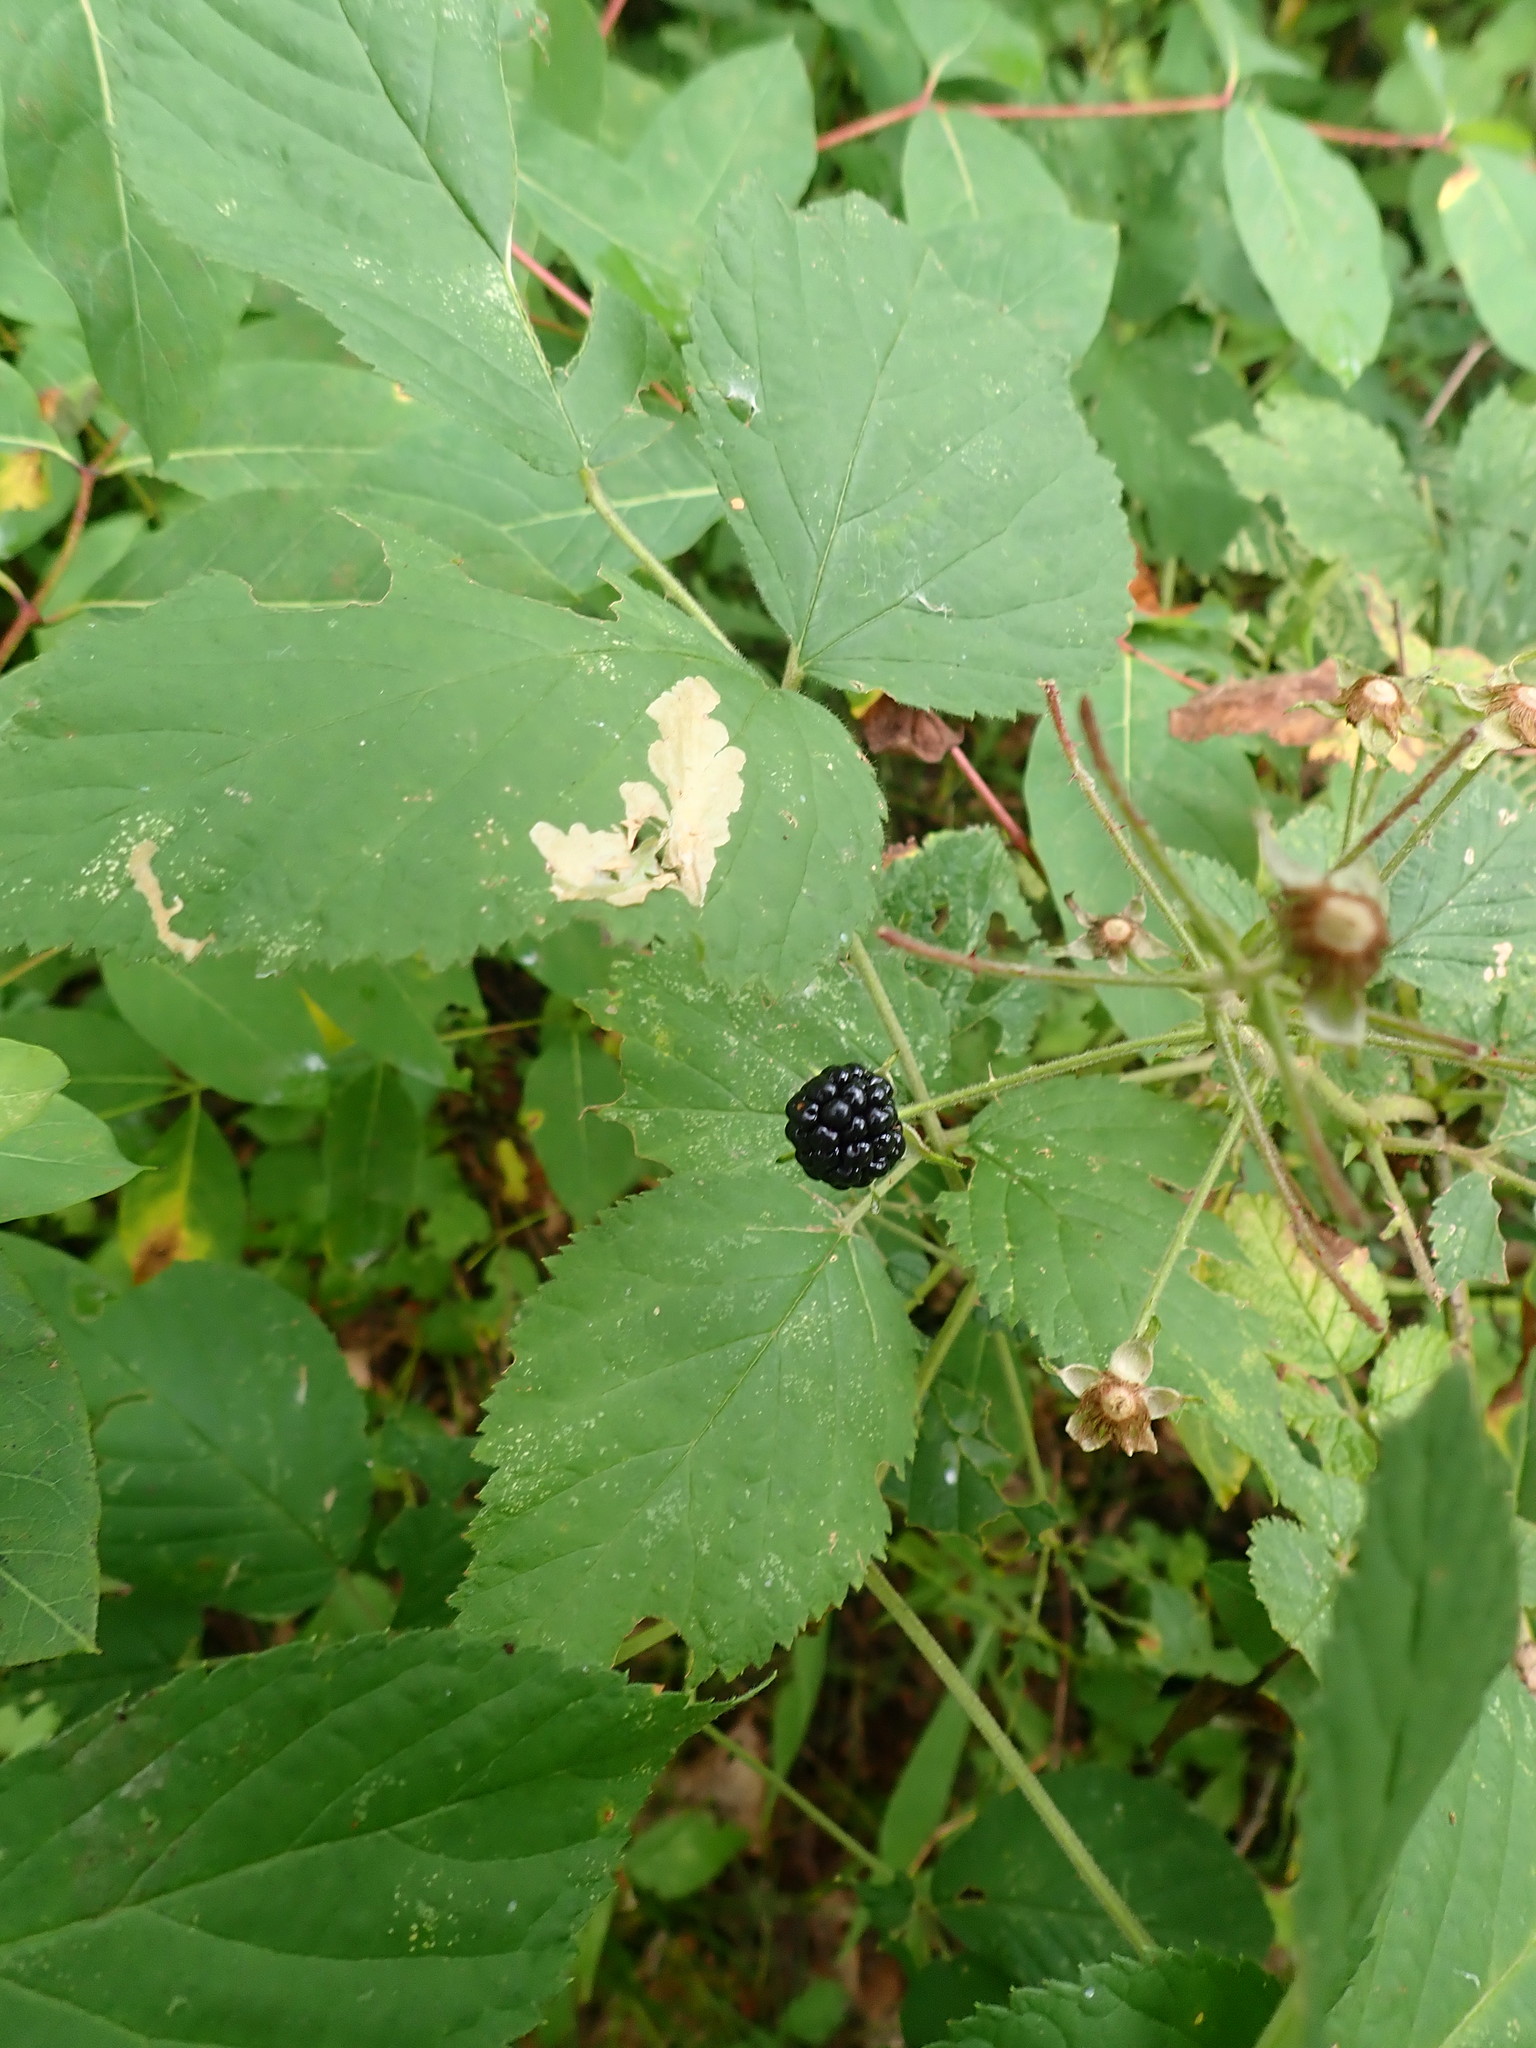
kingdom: Plantae
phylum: Tracheophyta
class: Magnoliopsida
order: Rosales
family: Rosaceae
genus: Rubus
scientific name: Rubus allegheniensis
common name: Allegheny blackberry
